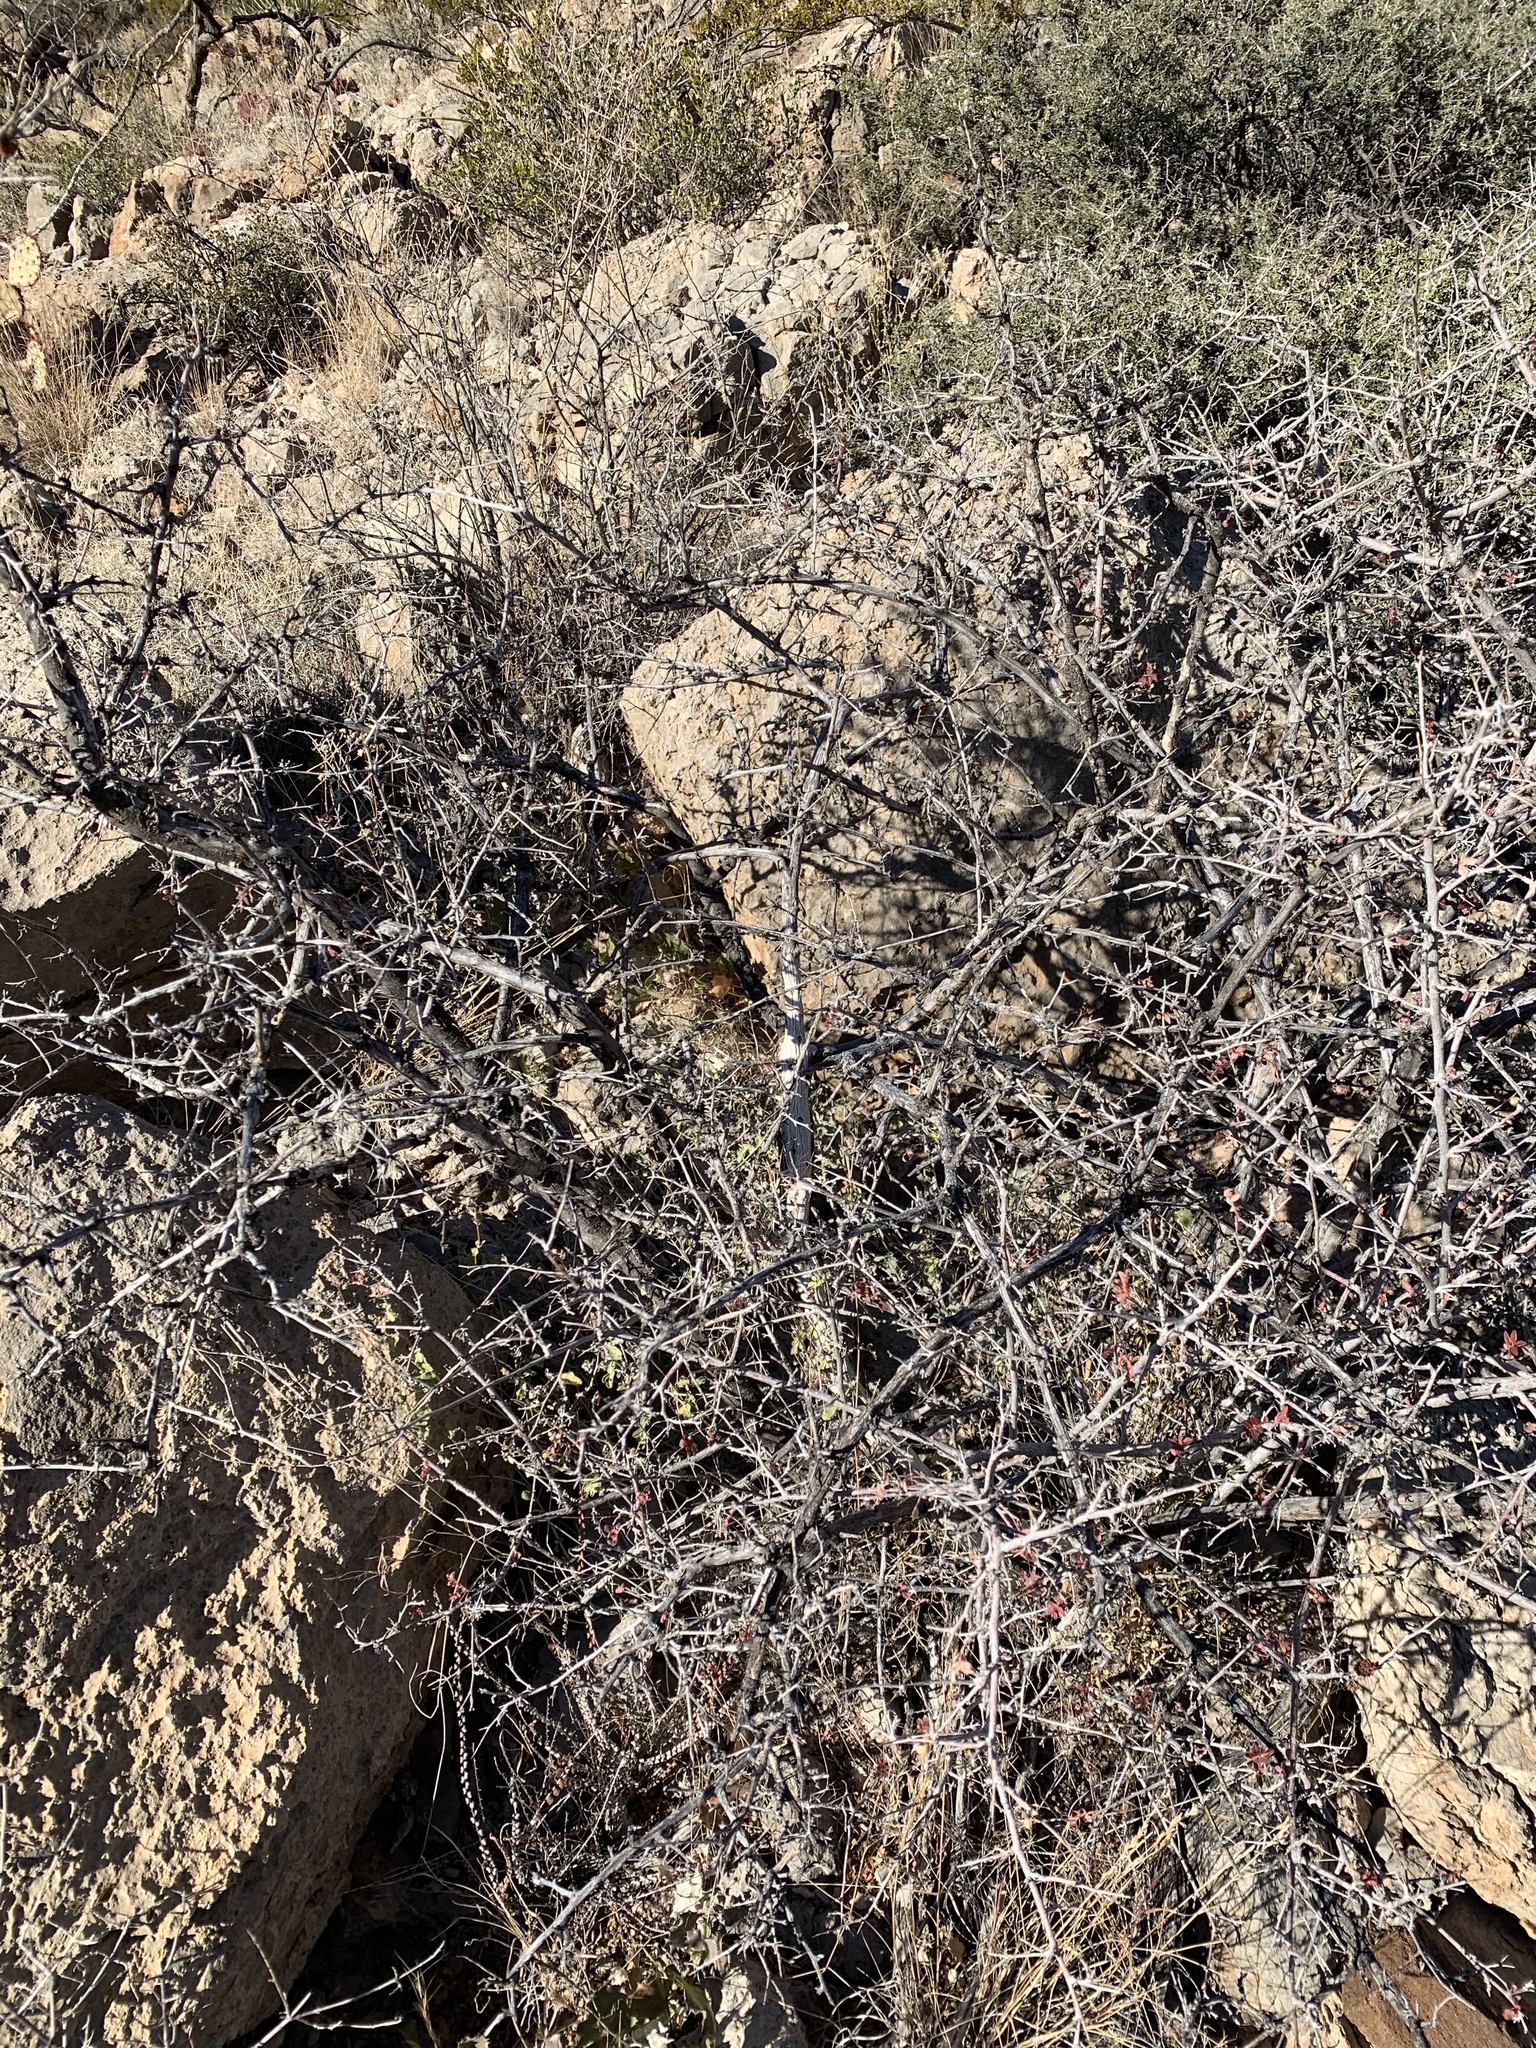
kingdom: Plantae
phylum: Tracheophyta
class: Magnoliopsida
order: Sapindales
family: Anacardiaceae
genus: Rhus
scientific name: Rhus microphylla
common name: Desert sumac
